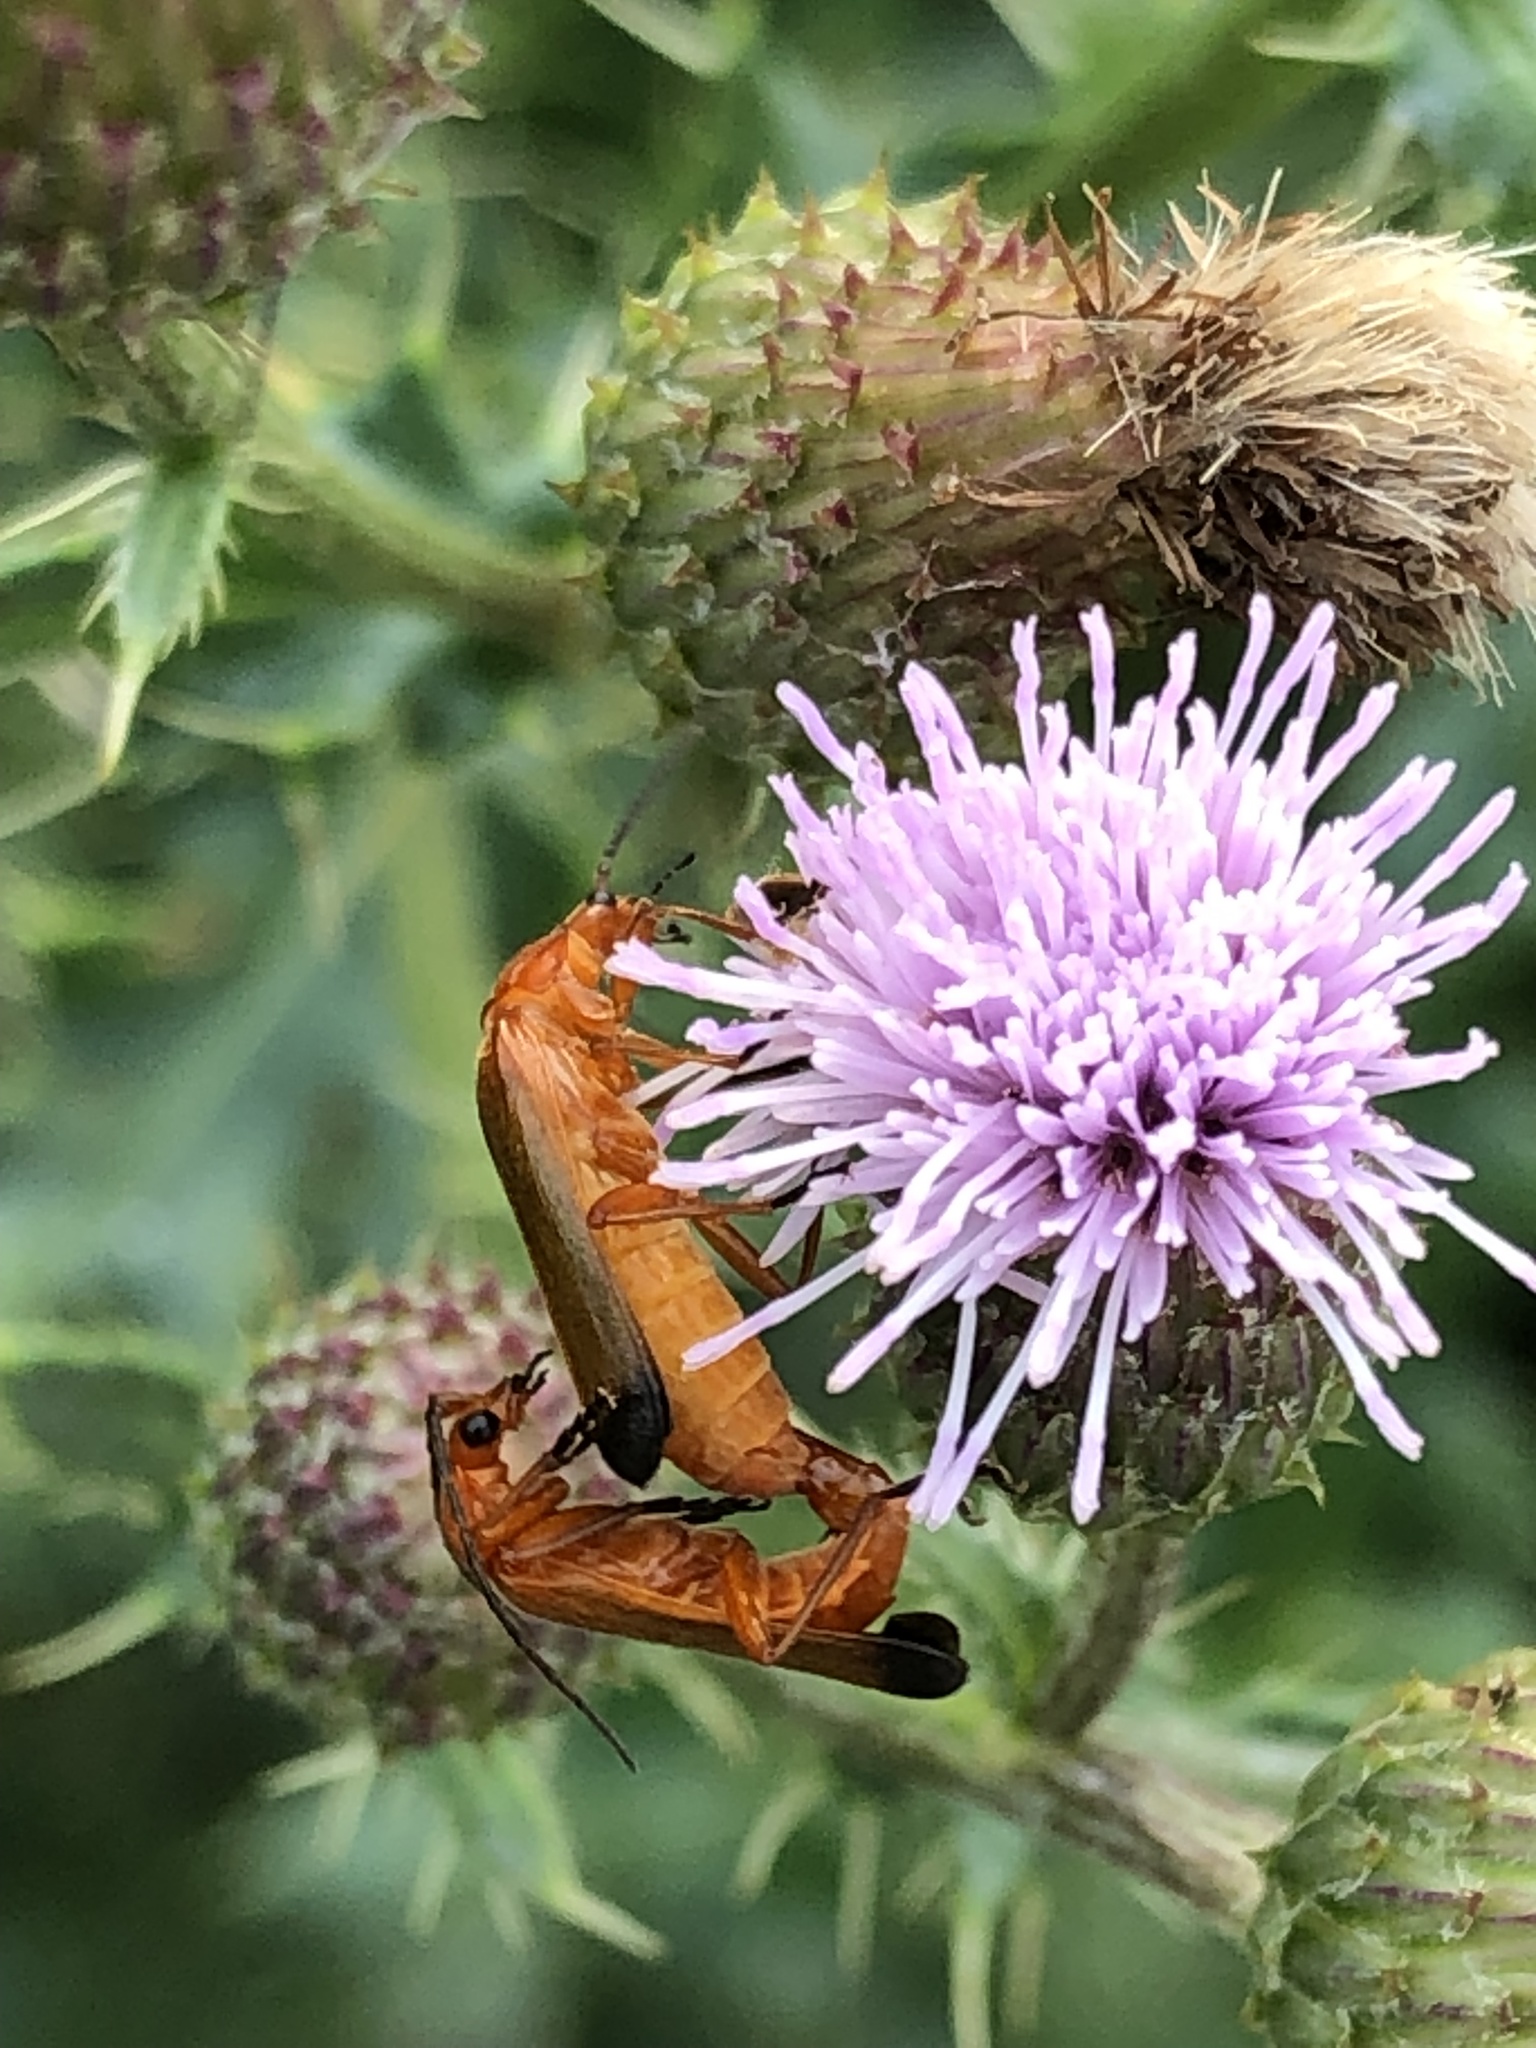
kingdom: Animalia
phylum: Arthropoda
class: Insecta
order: Coleoptera
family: Cantharidae
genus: Rhagonycha
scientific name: Rhagonycha fulva
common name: Common red soldier beetle
